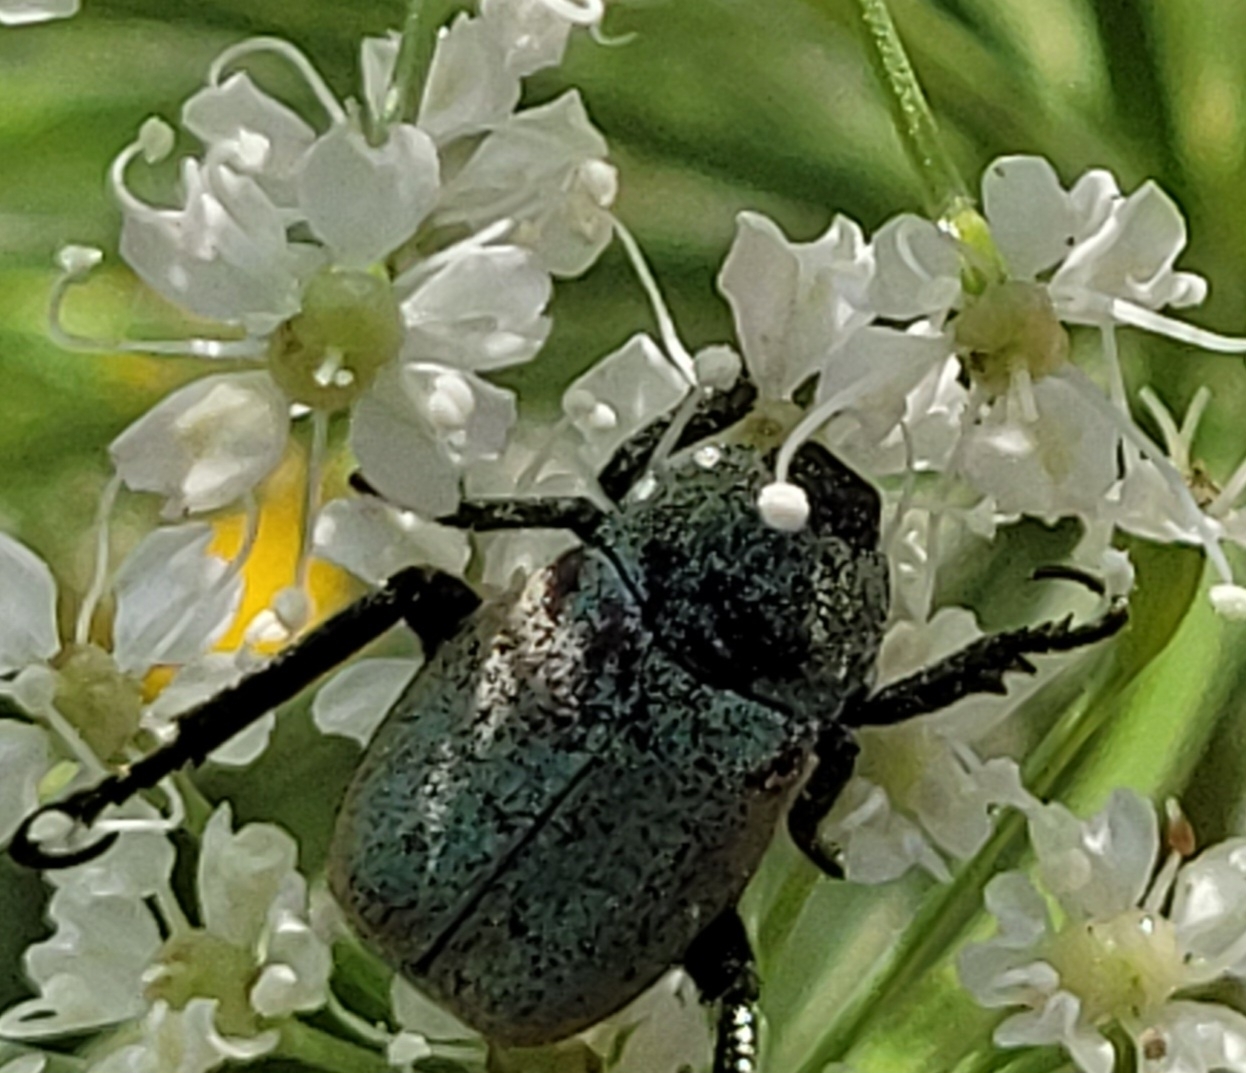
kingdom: Animalia
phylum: Arthropoda
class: Insecta
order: Coleoptera
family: Scarabaeidae
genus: Hoplia
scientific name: Hoplia argentea
